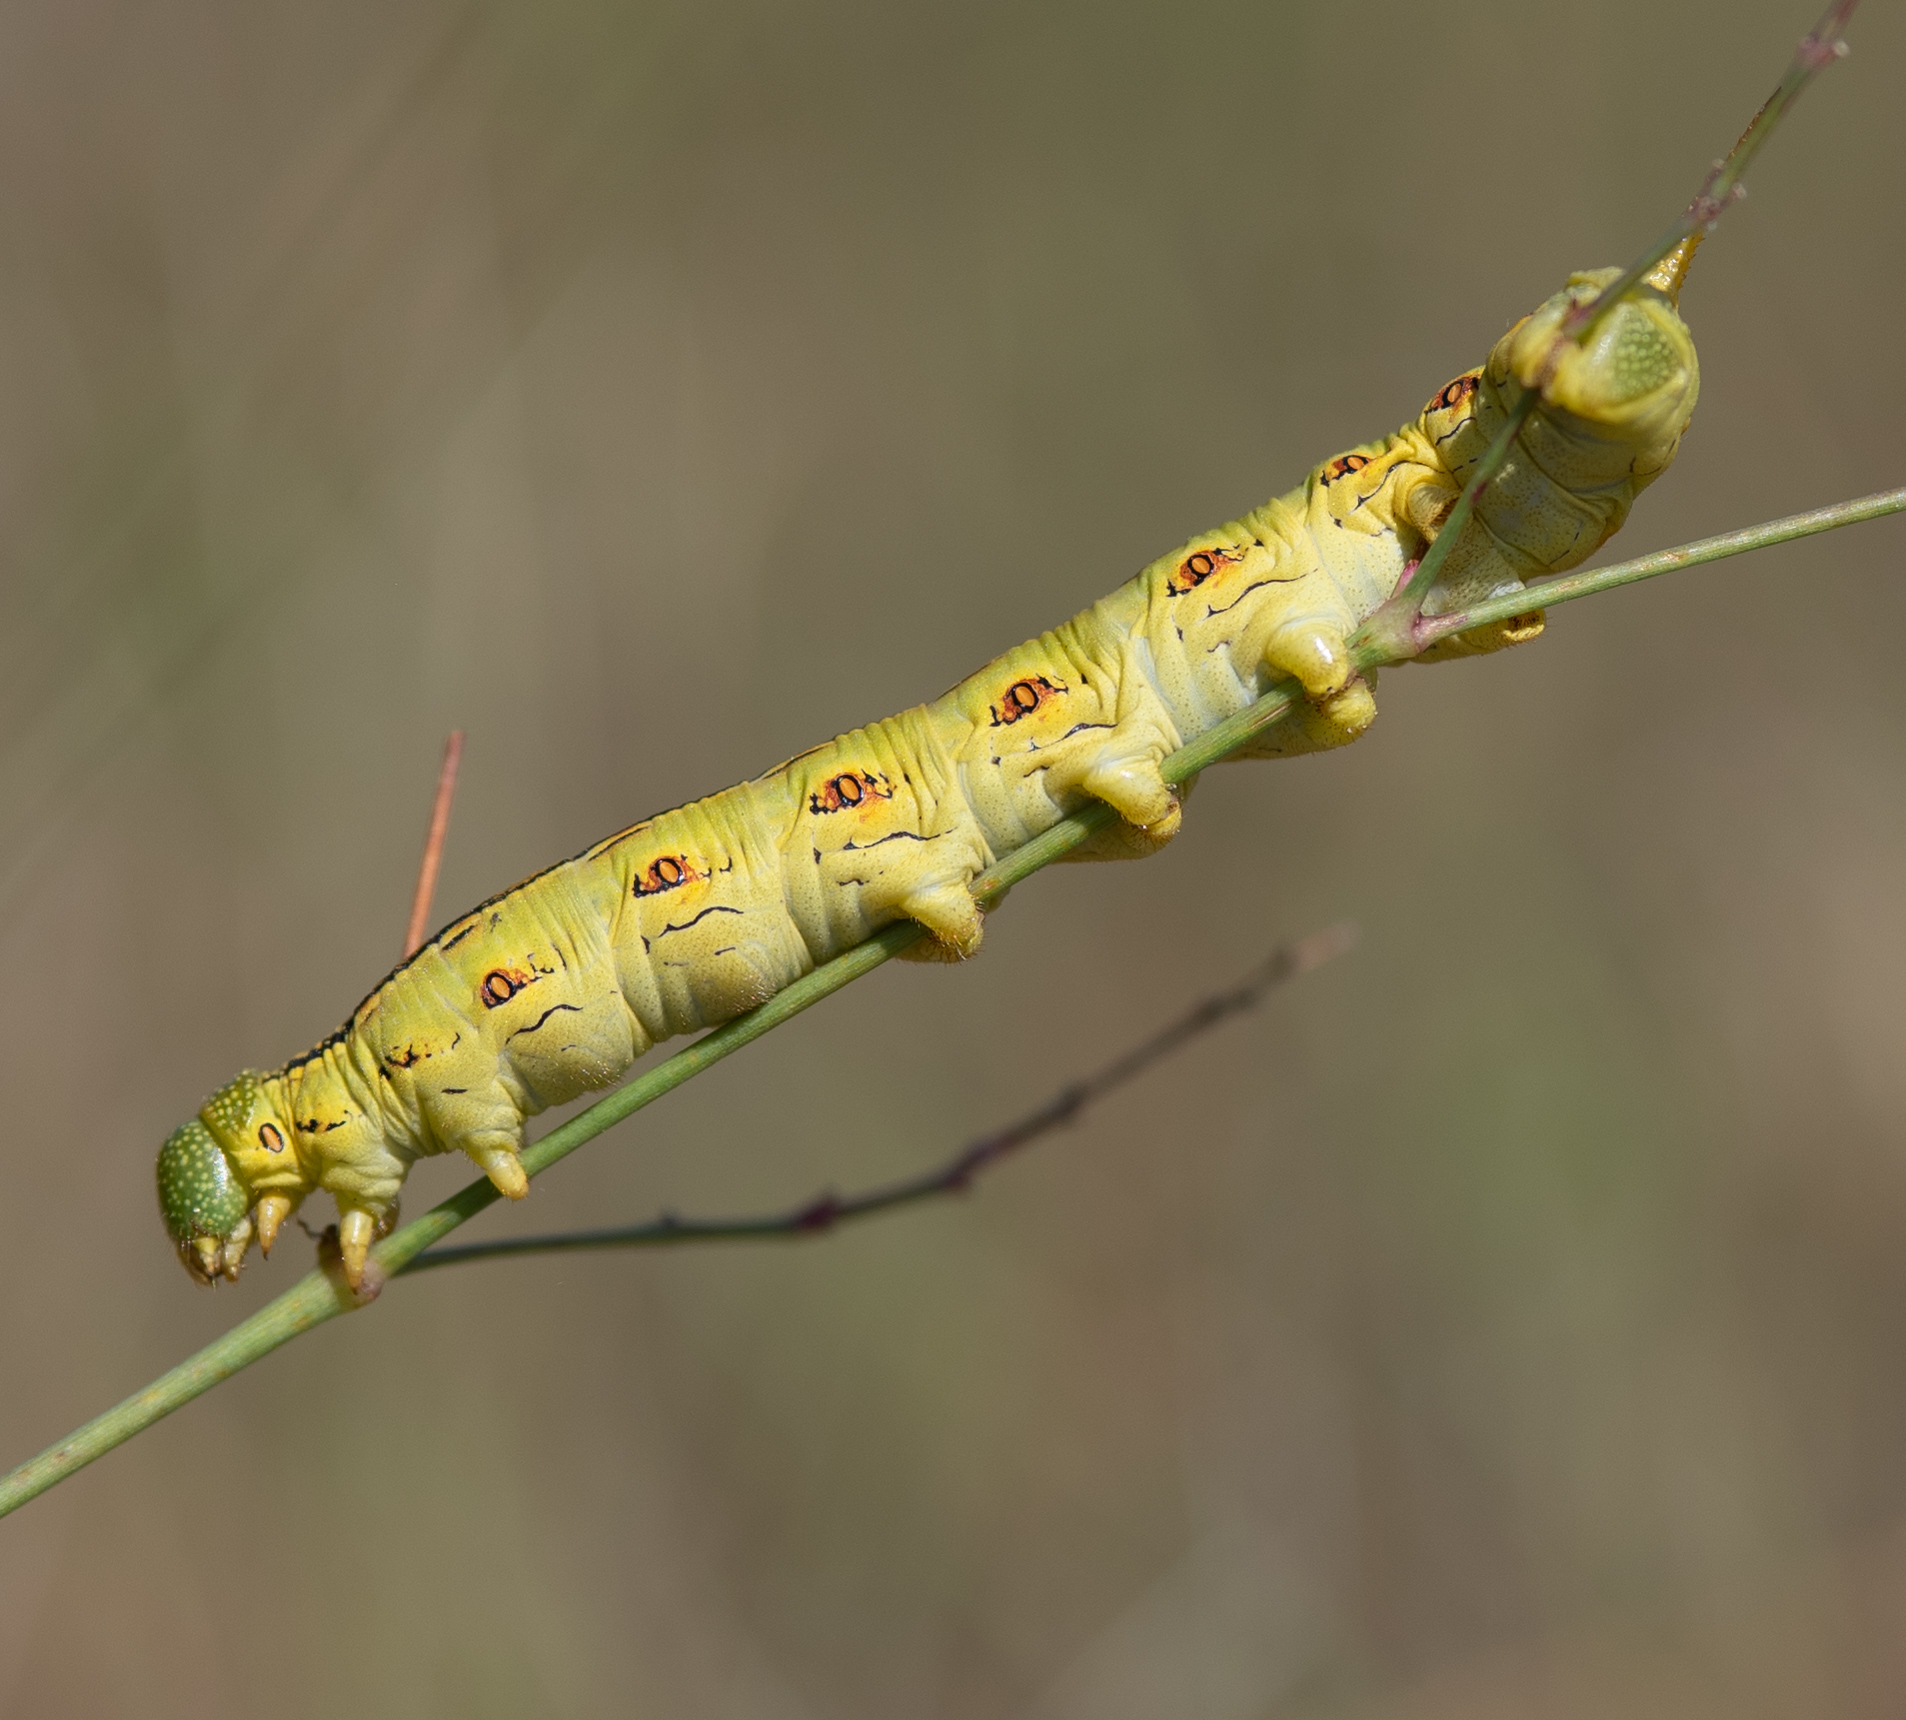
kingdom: Animalia
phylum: Arthropoda
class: Insecta
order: Lepidoptera
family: Sphingidae
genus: Hyles
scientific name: Hyles lineata
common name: White-lined sphinx
